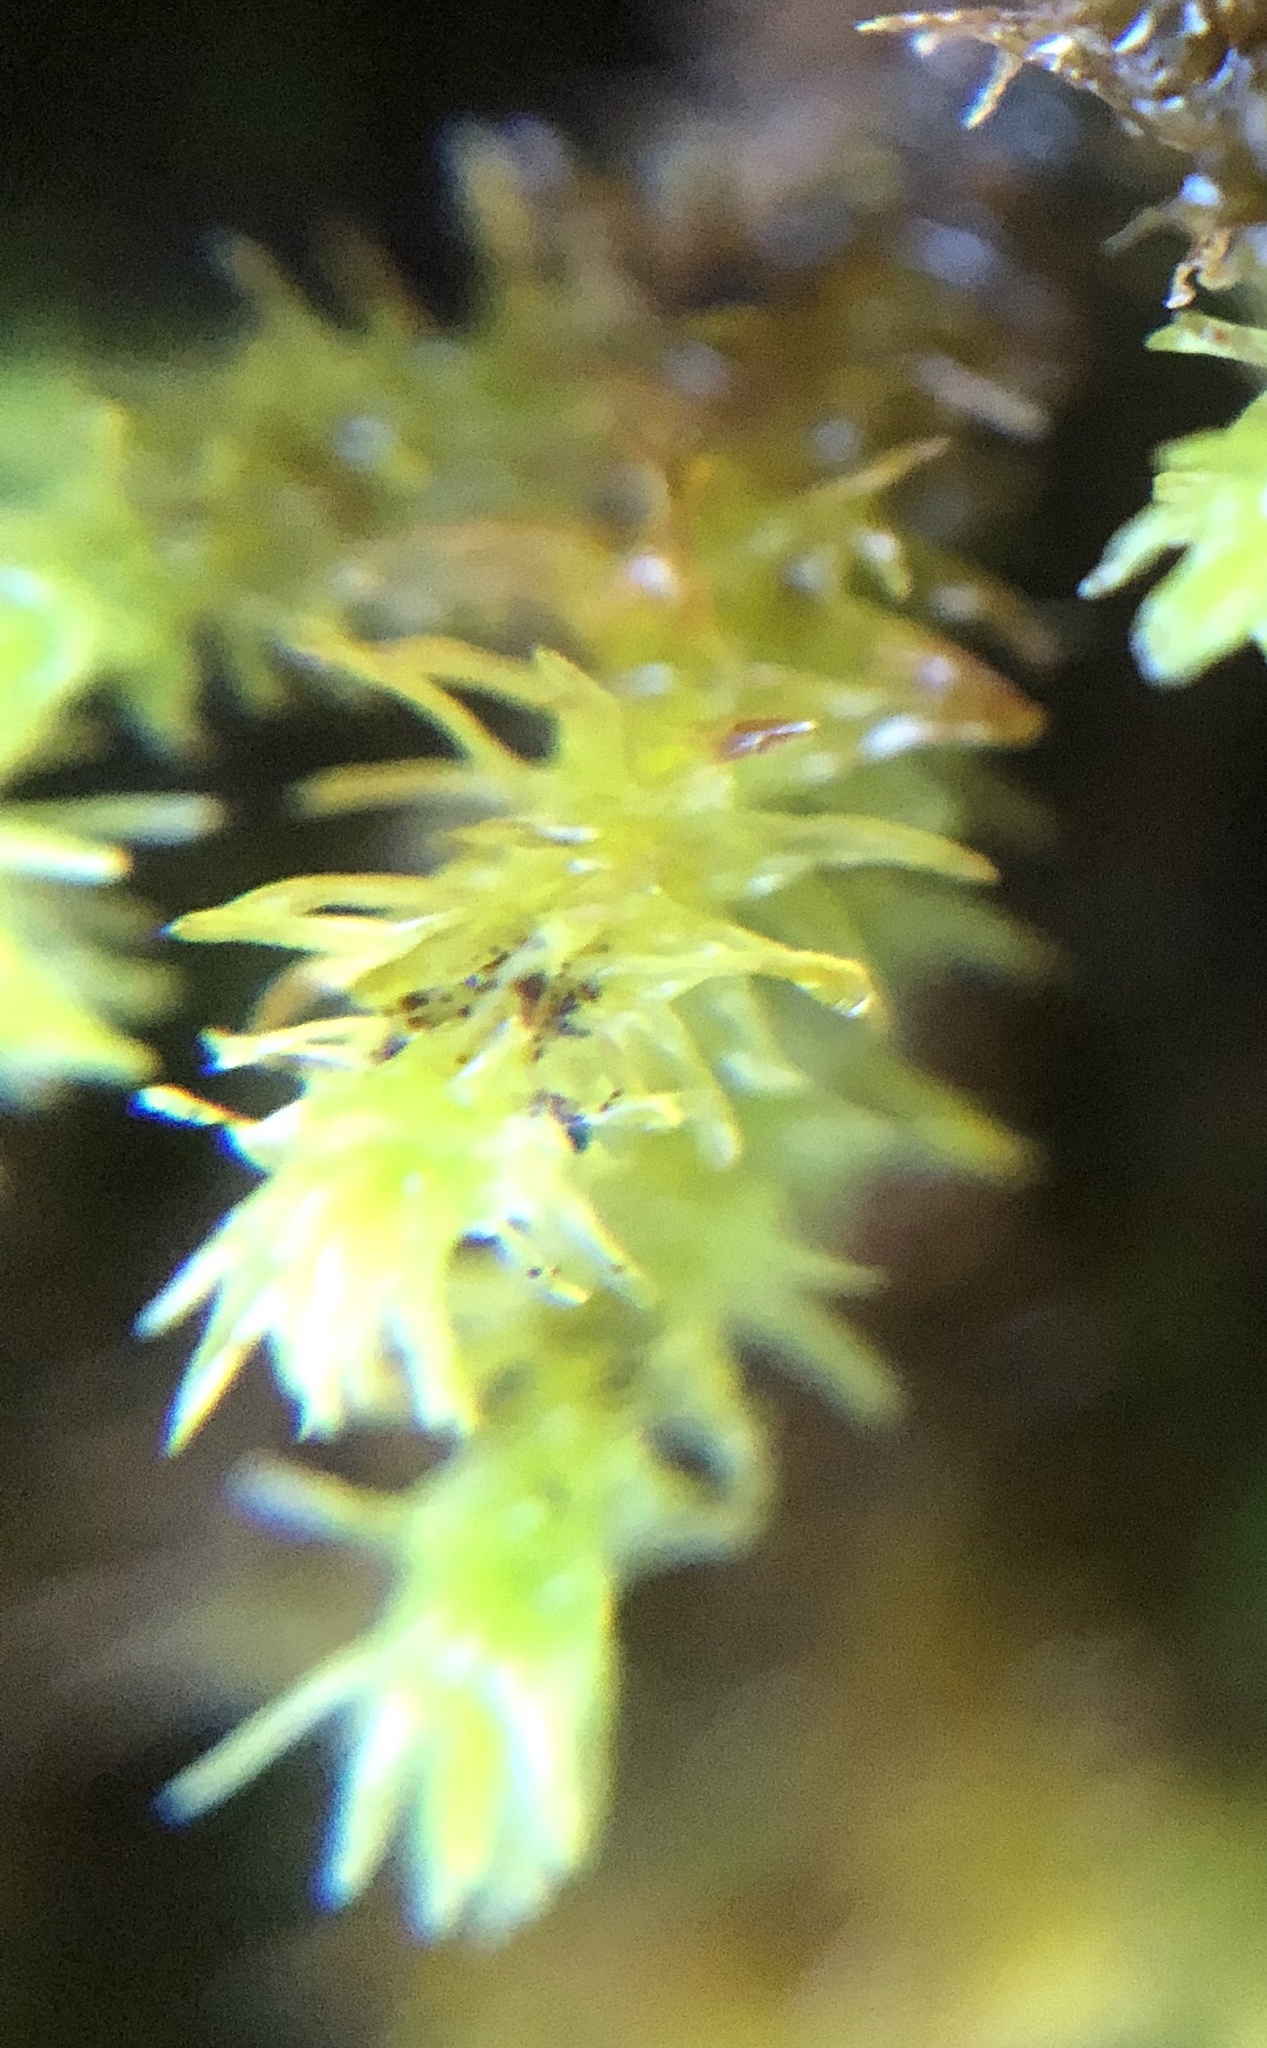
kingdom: Plantae
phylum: Bryophyta
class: Bryopsida
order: Hypnales
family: Anomodontaceae
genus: Anomodon
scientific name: Anomodon viticulosus
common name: Tall anomodon
